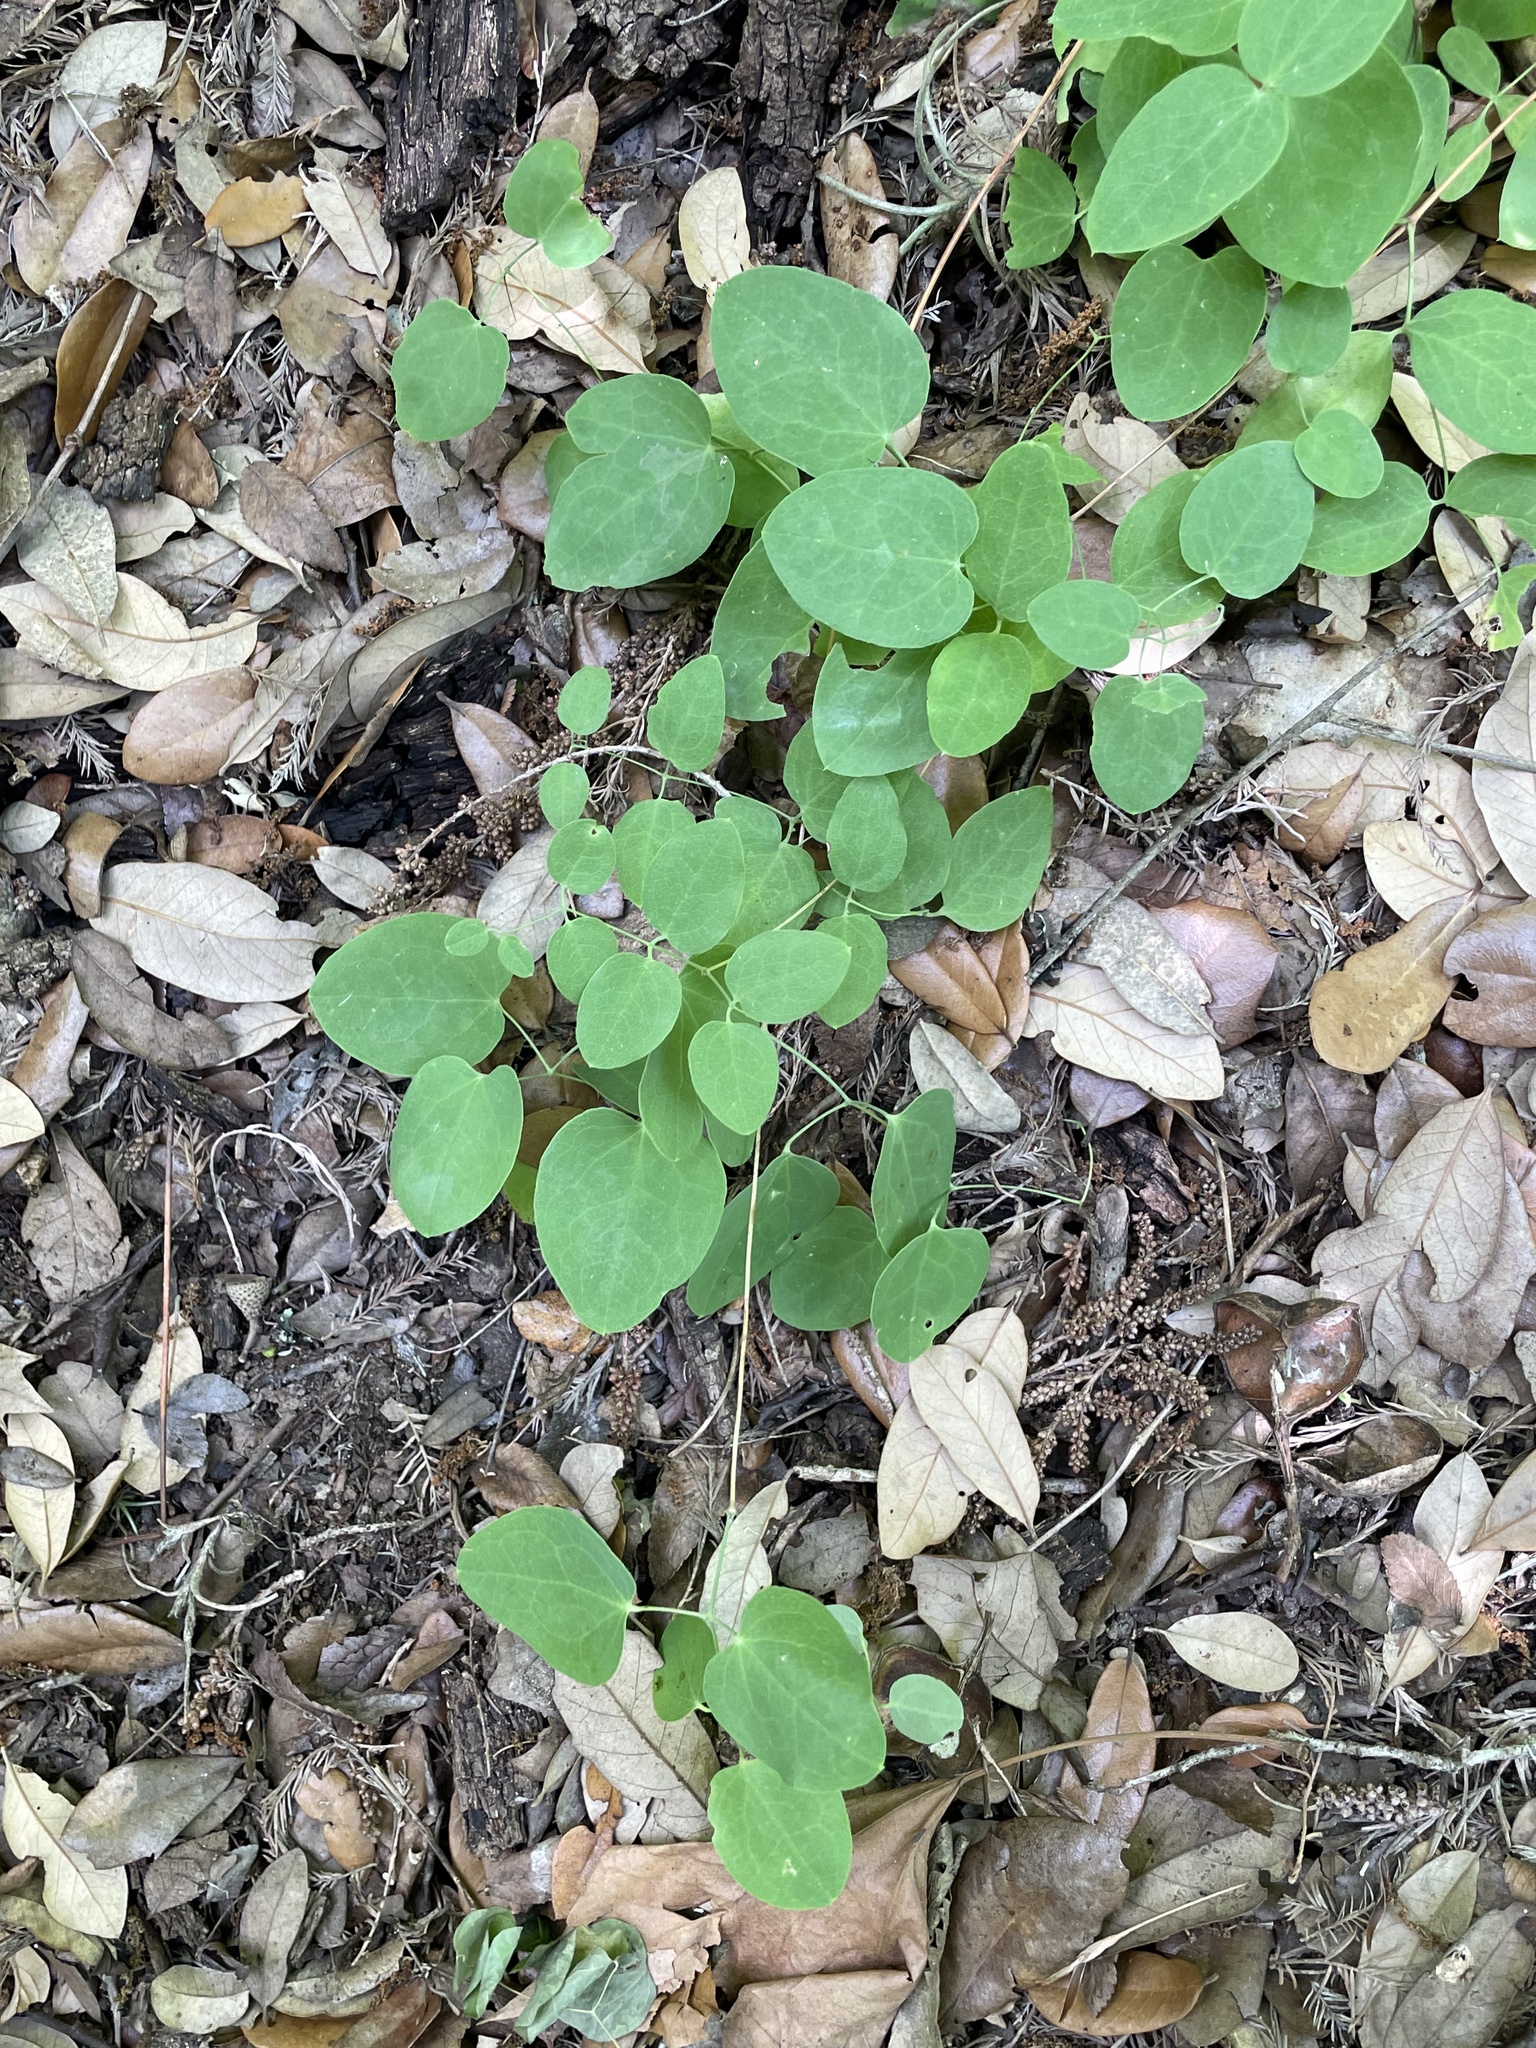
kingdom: Plantae
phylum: Tracheophyta
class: Magnoliopsida
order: Ranunculales
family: Ranunculaceae
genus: Clematis
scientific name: Clematis texensis
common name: Crimson clematis
